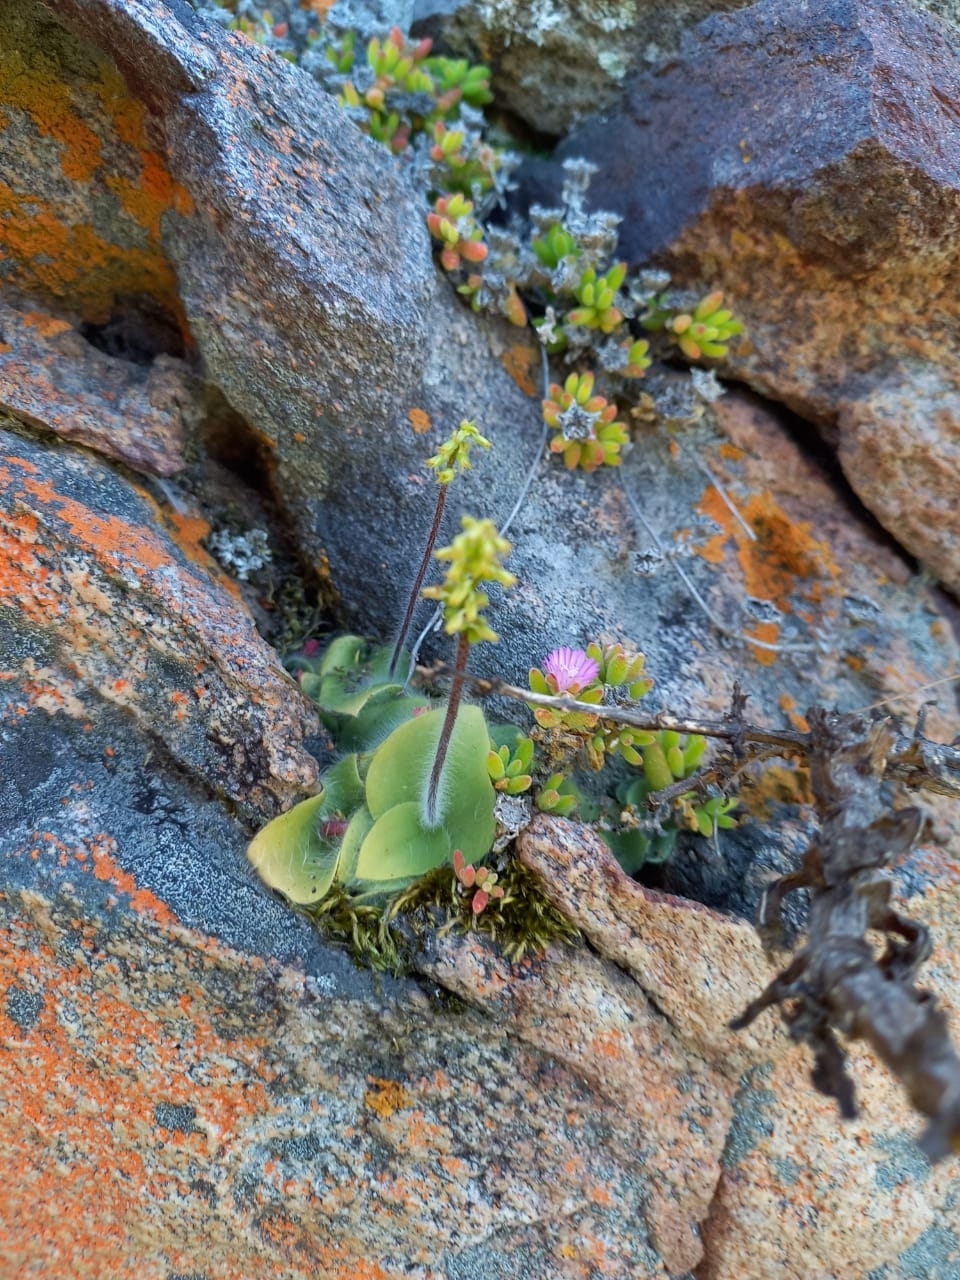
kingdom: Plantae
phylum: Tracheophyta
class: Liliopsida
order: Asparagales
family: Orchidaceae
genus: Holothrix
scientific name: Holothrix villosa
